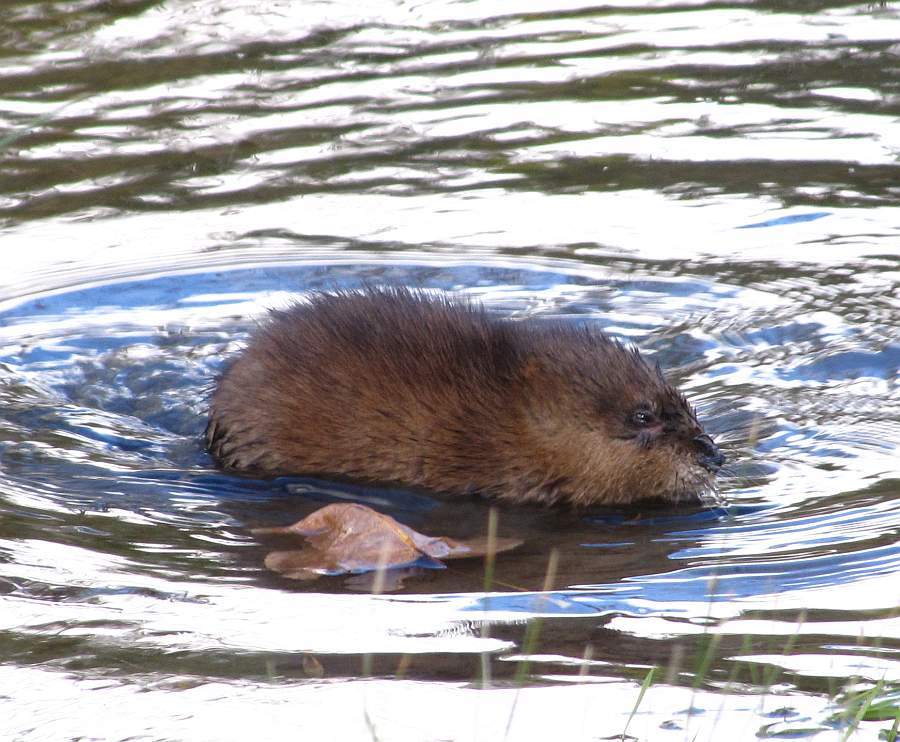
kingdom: Animalia
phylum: Chordata
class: Mammalia
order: Rodentia
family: Cricetidae
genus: Ondatra
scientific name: Ondatra zibethicus
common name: Muskrat
